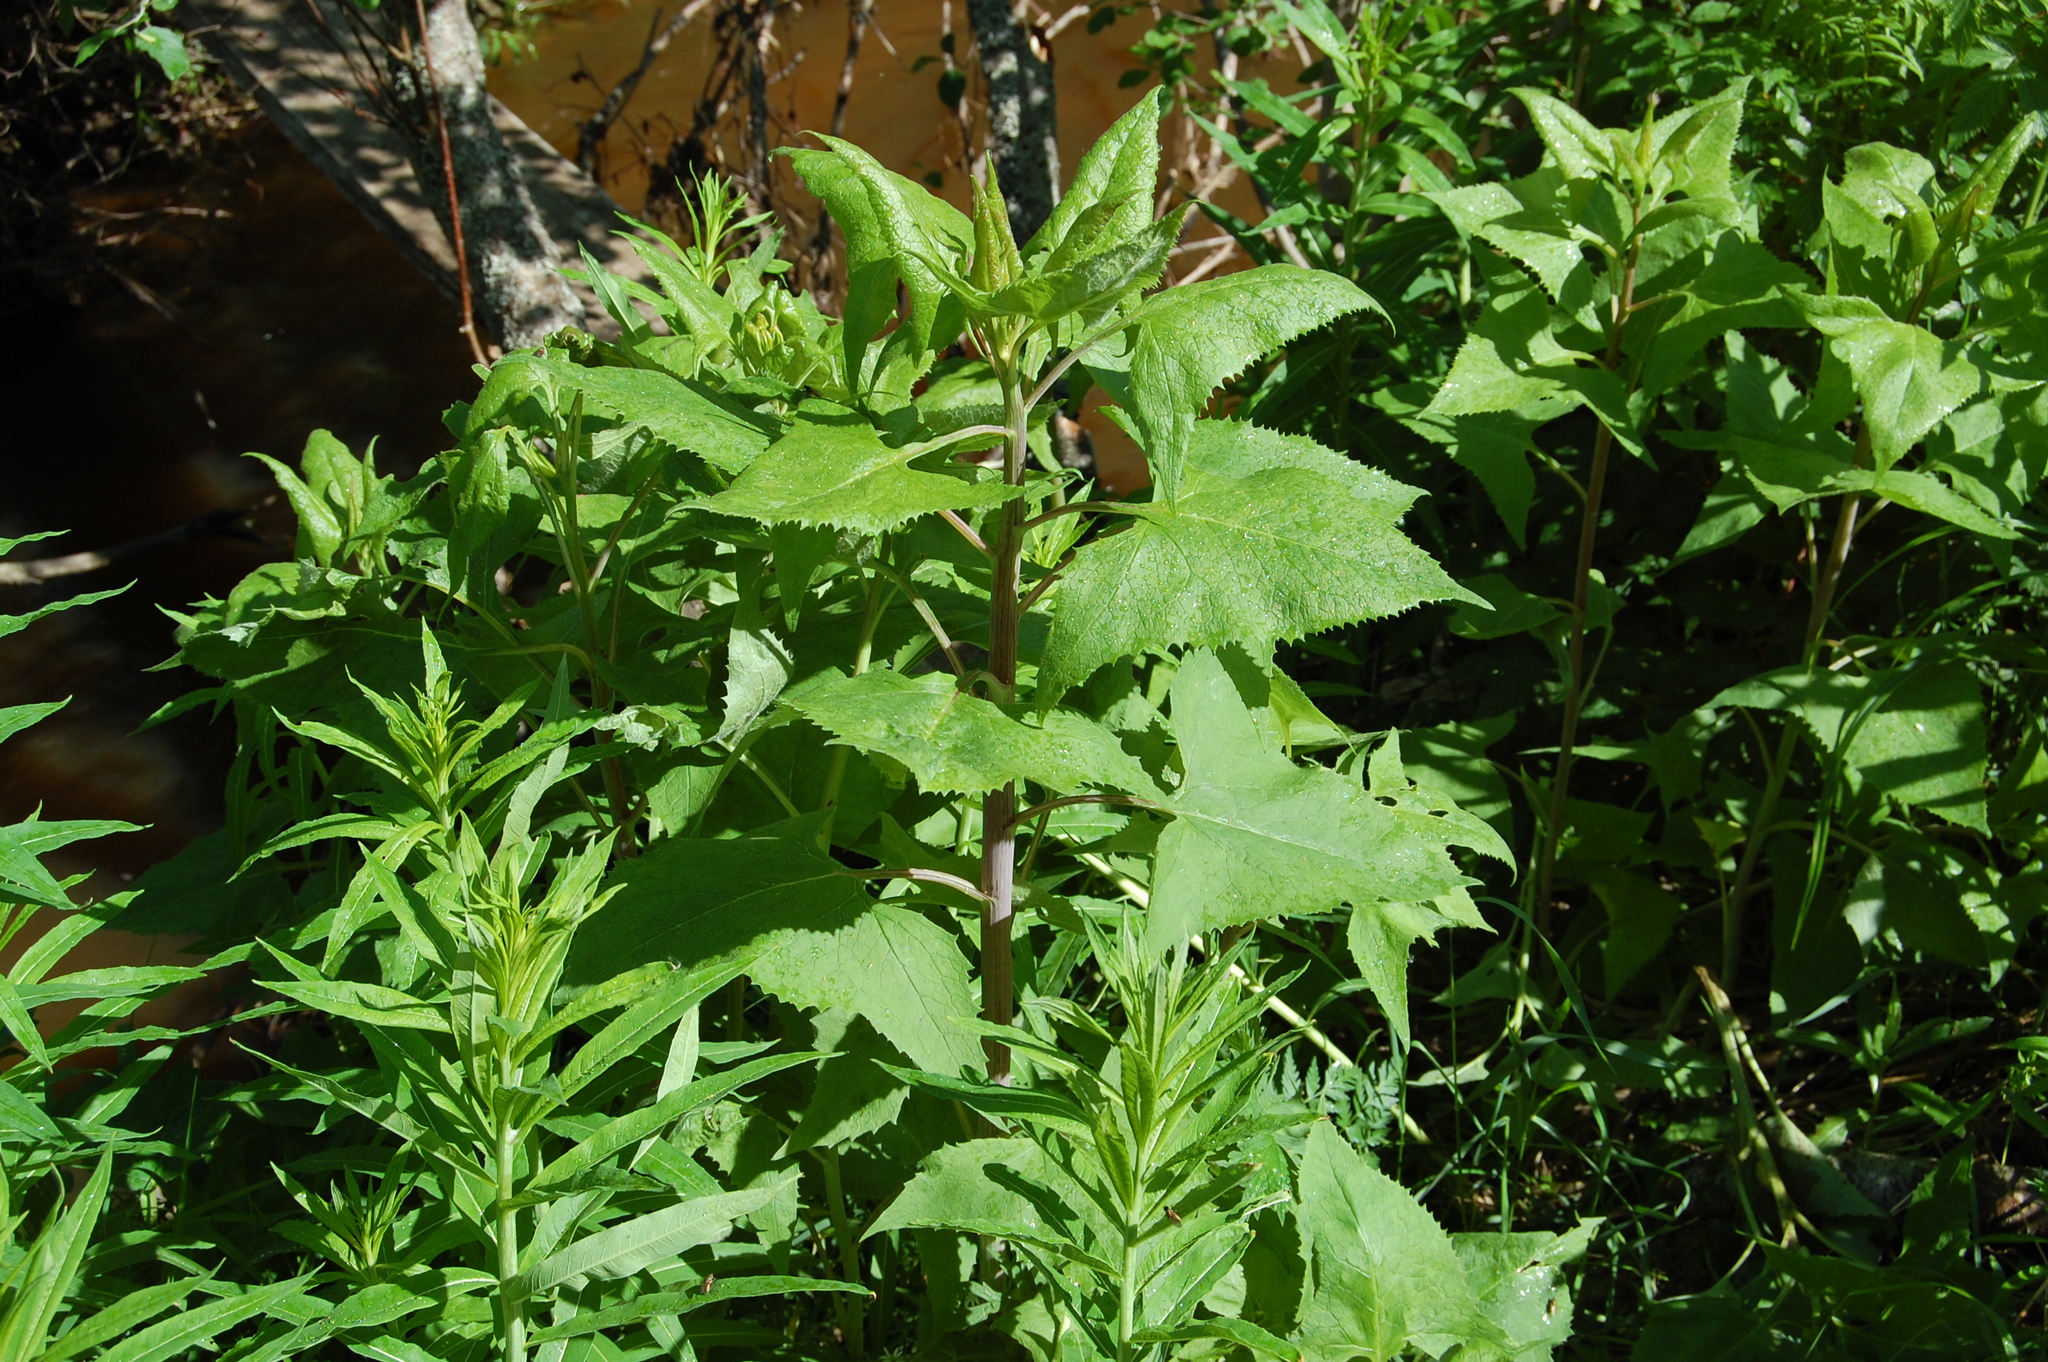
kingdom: Plantae
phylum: Tracheophyta
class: Magnoliopsida
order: Asterales
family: Asteraceae
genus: Parasenecio
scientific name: Parasenecio hastatus
